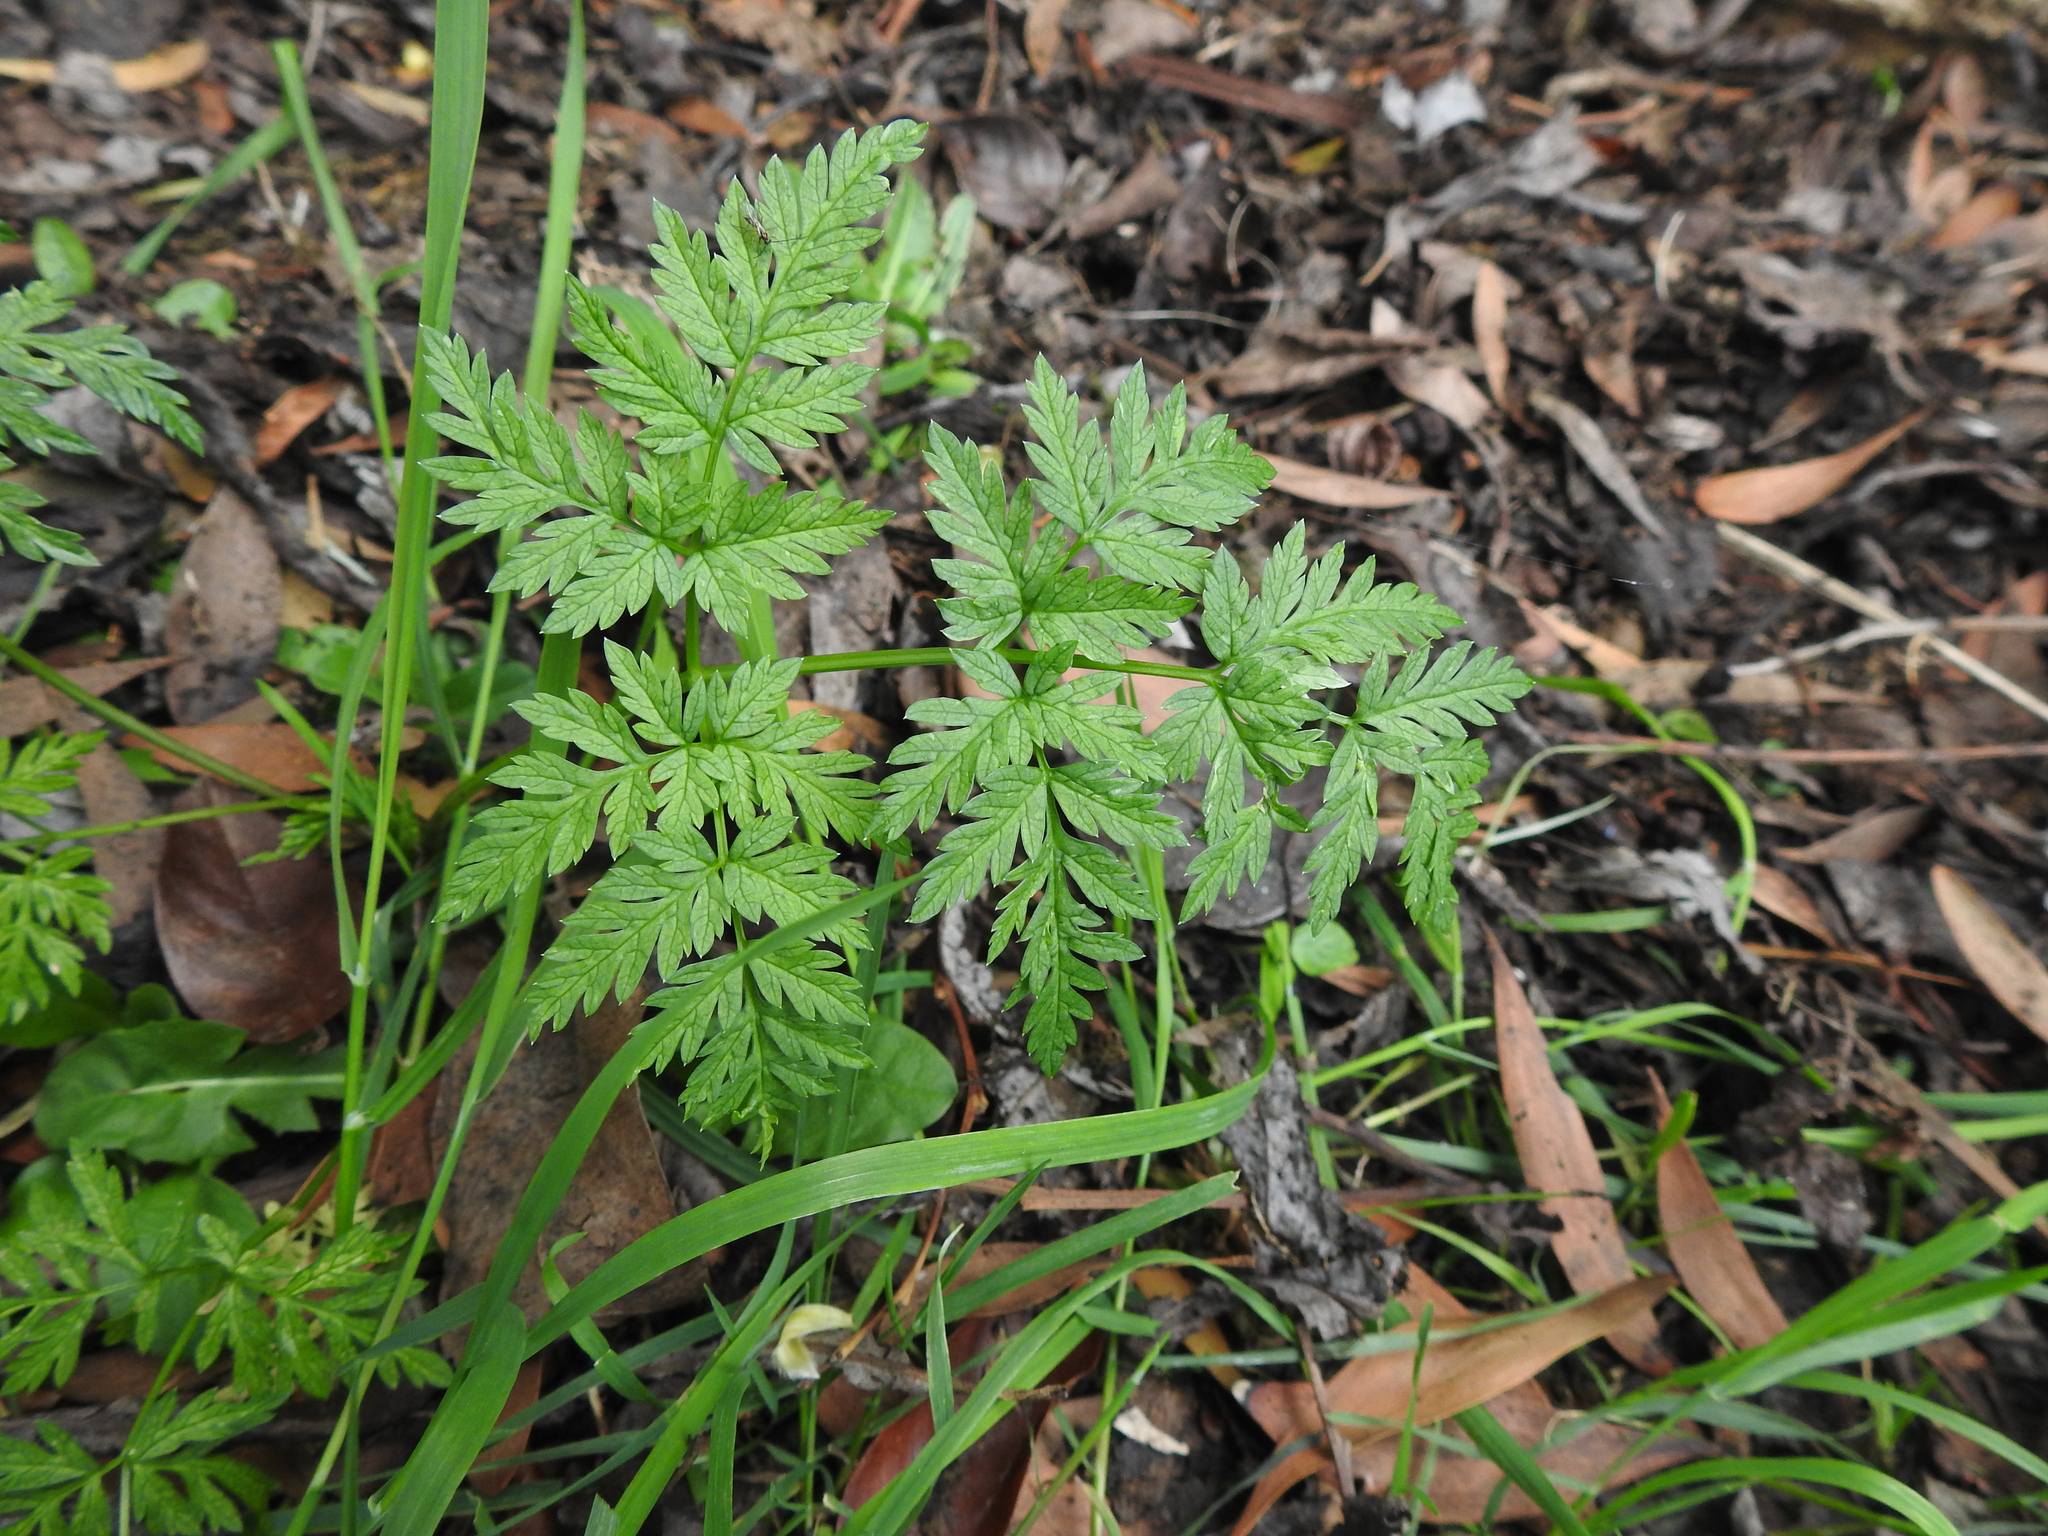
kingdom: Plantae
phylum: Tracheophyta
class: Magnoliopsida
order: Apiales
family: Apiaceae
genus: Conium
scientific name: Conium maculatum
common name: Hemlock
